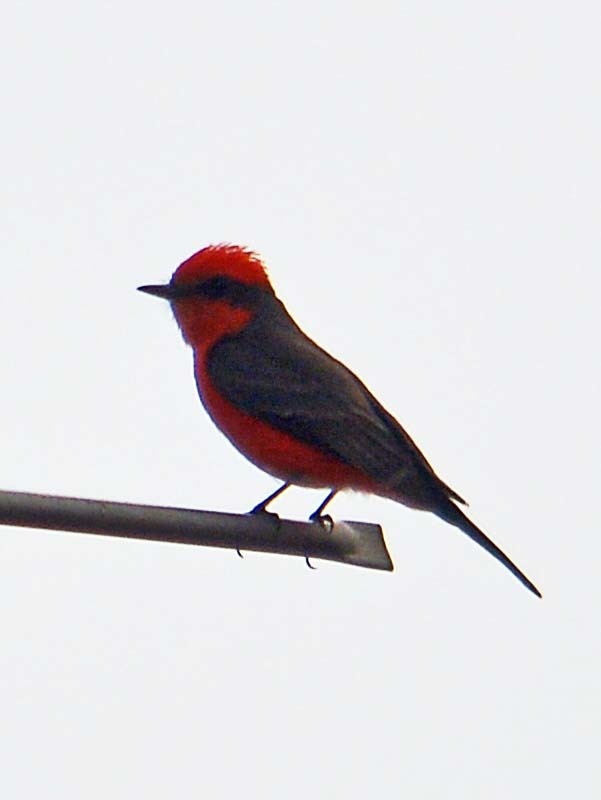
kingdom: Animalia
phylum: Chordata
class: Aves
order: Passeriformes
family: Tyrannidae
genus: Pyrocephalus
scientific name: Pyrocephalus rubinus
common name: Vermilion flycatcher
